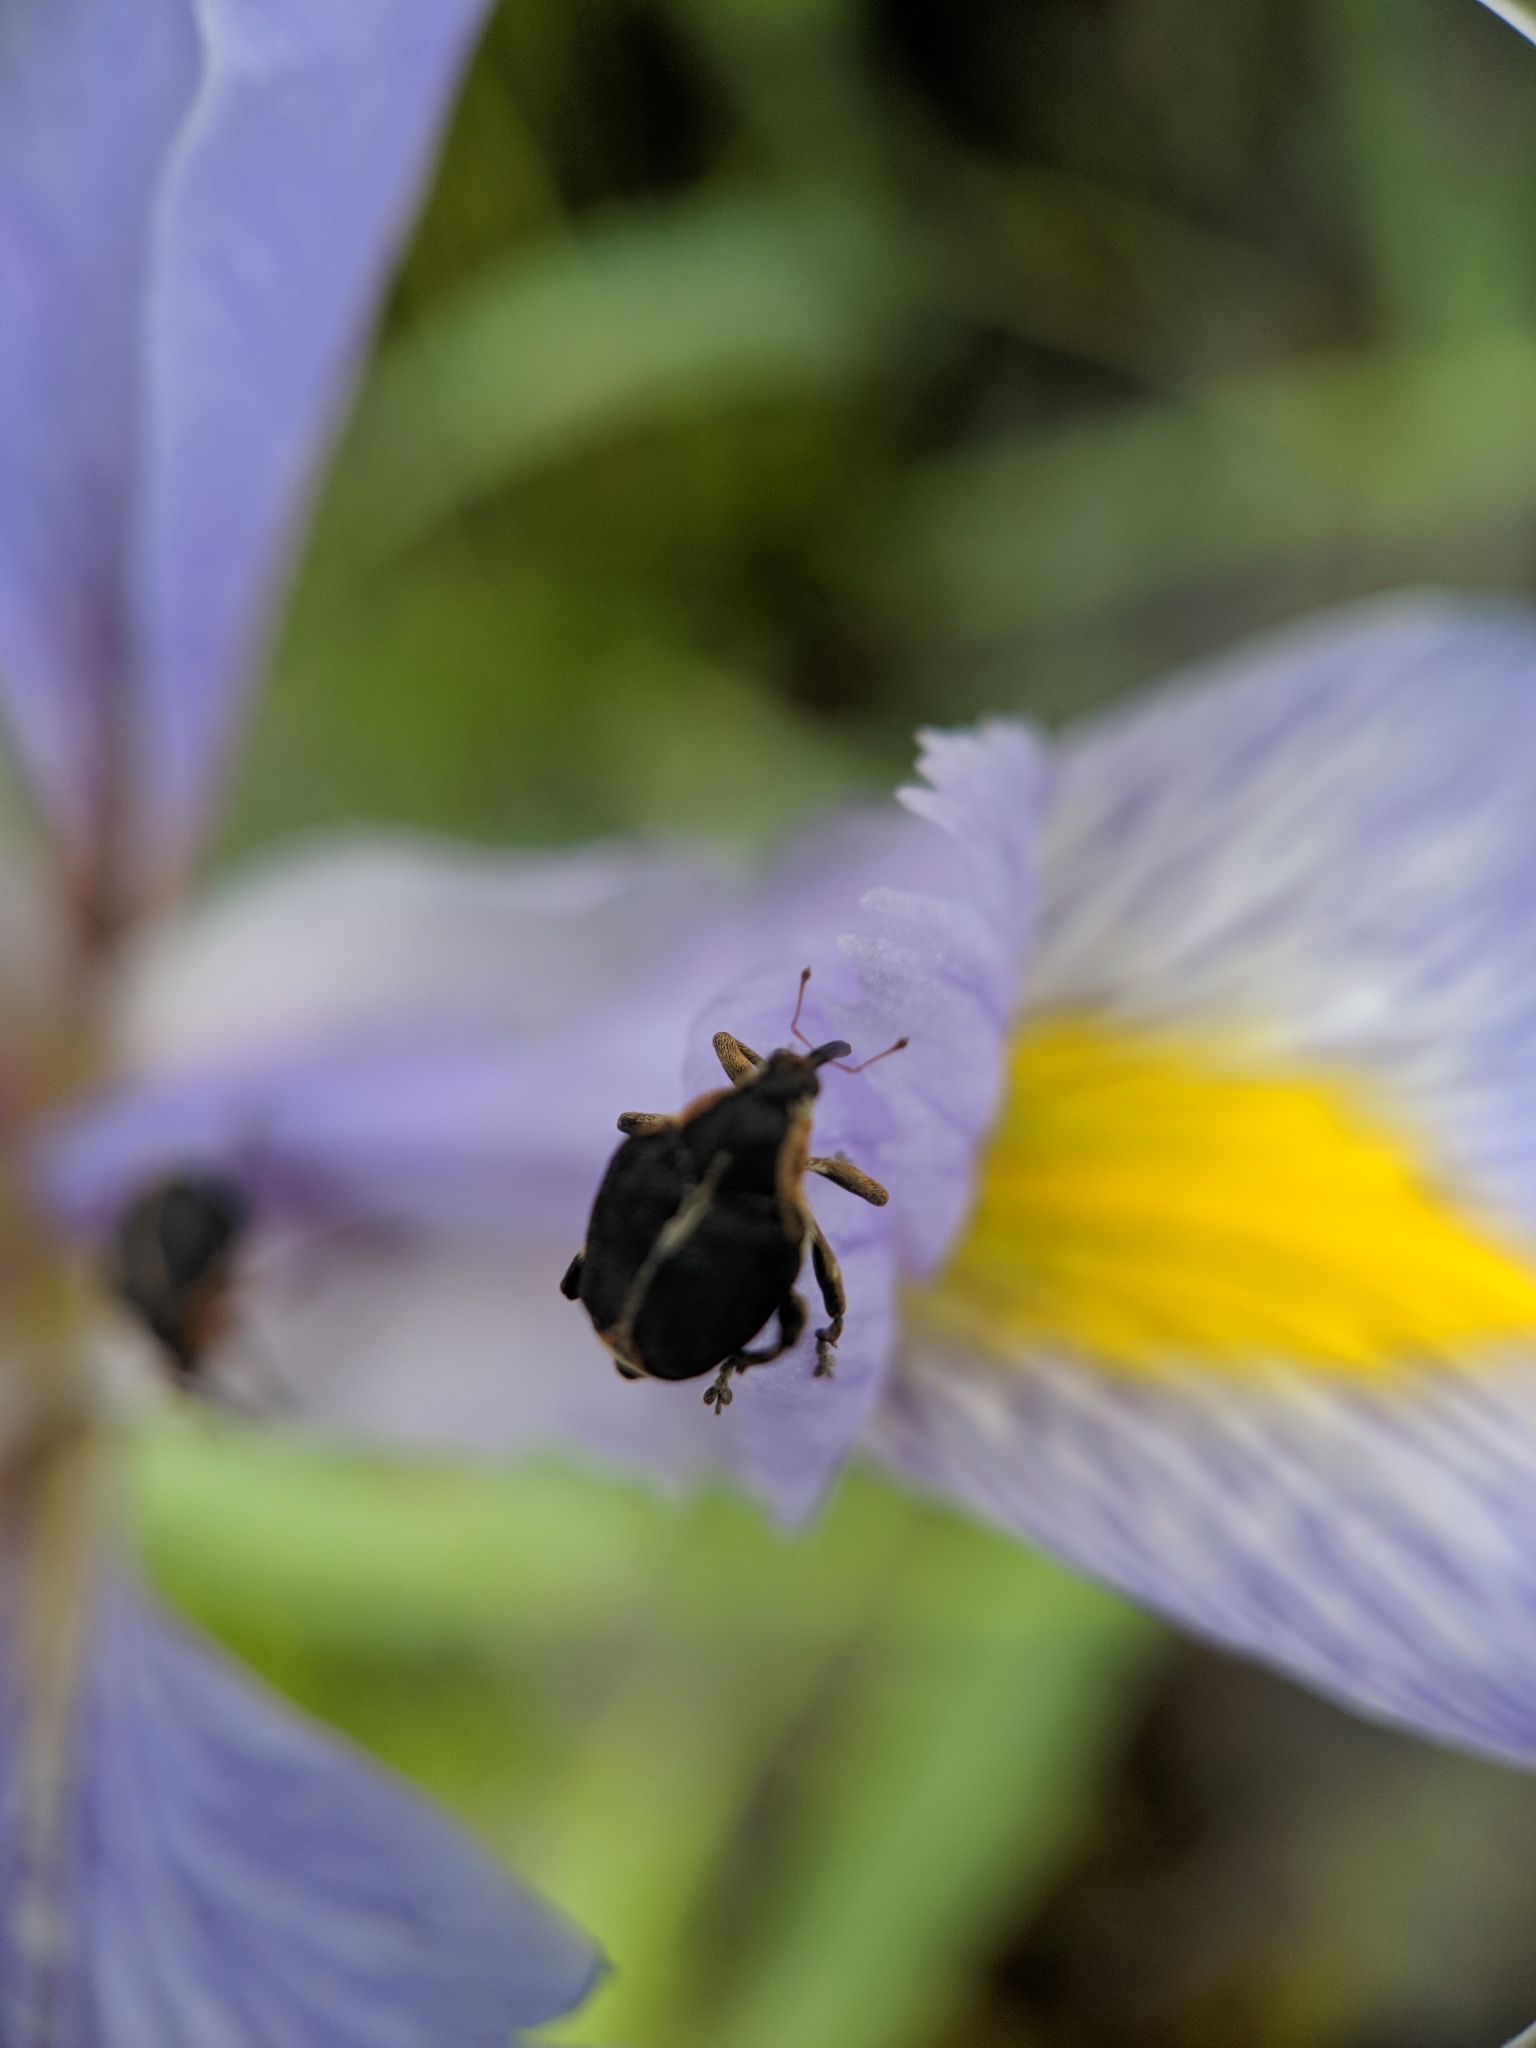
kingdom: Animalia
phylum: Arthropoda
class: Insecta
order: Coleoptera
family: Curculionidae
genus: Mononychus
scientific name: Mononychus vulpeculus
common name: Iris weevil
